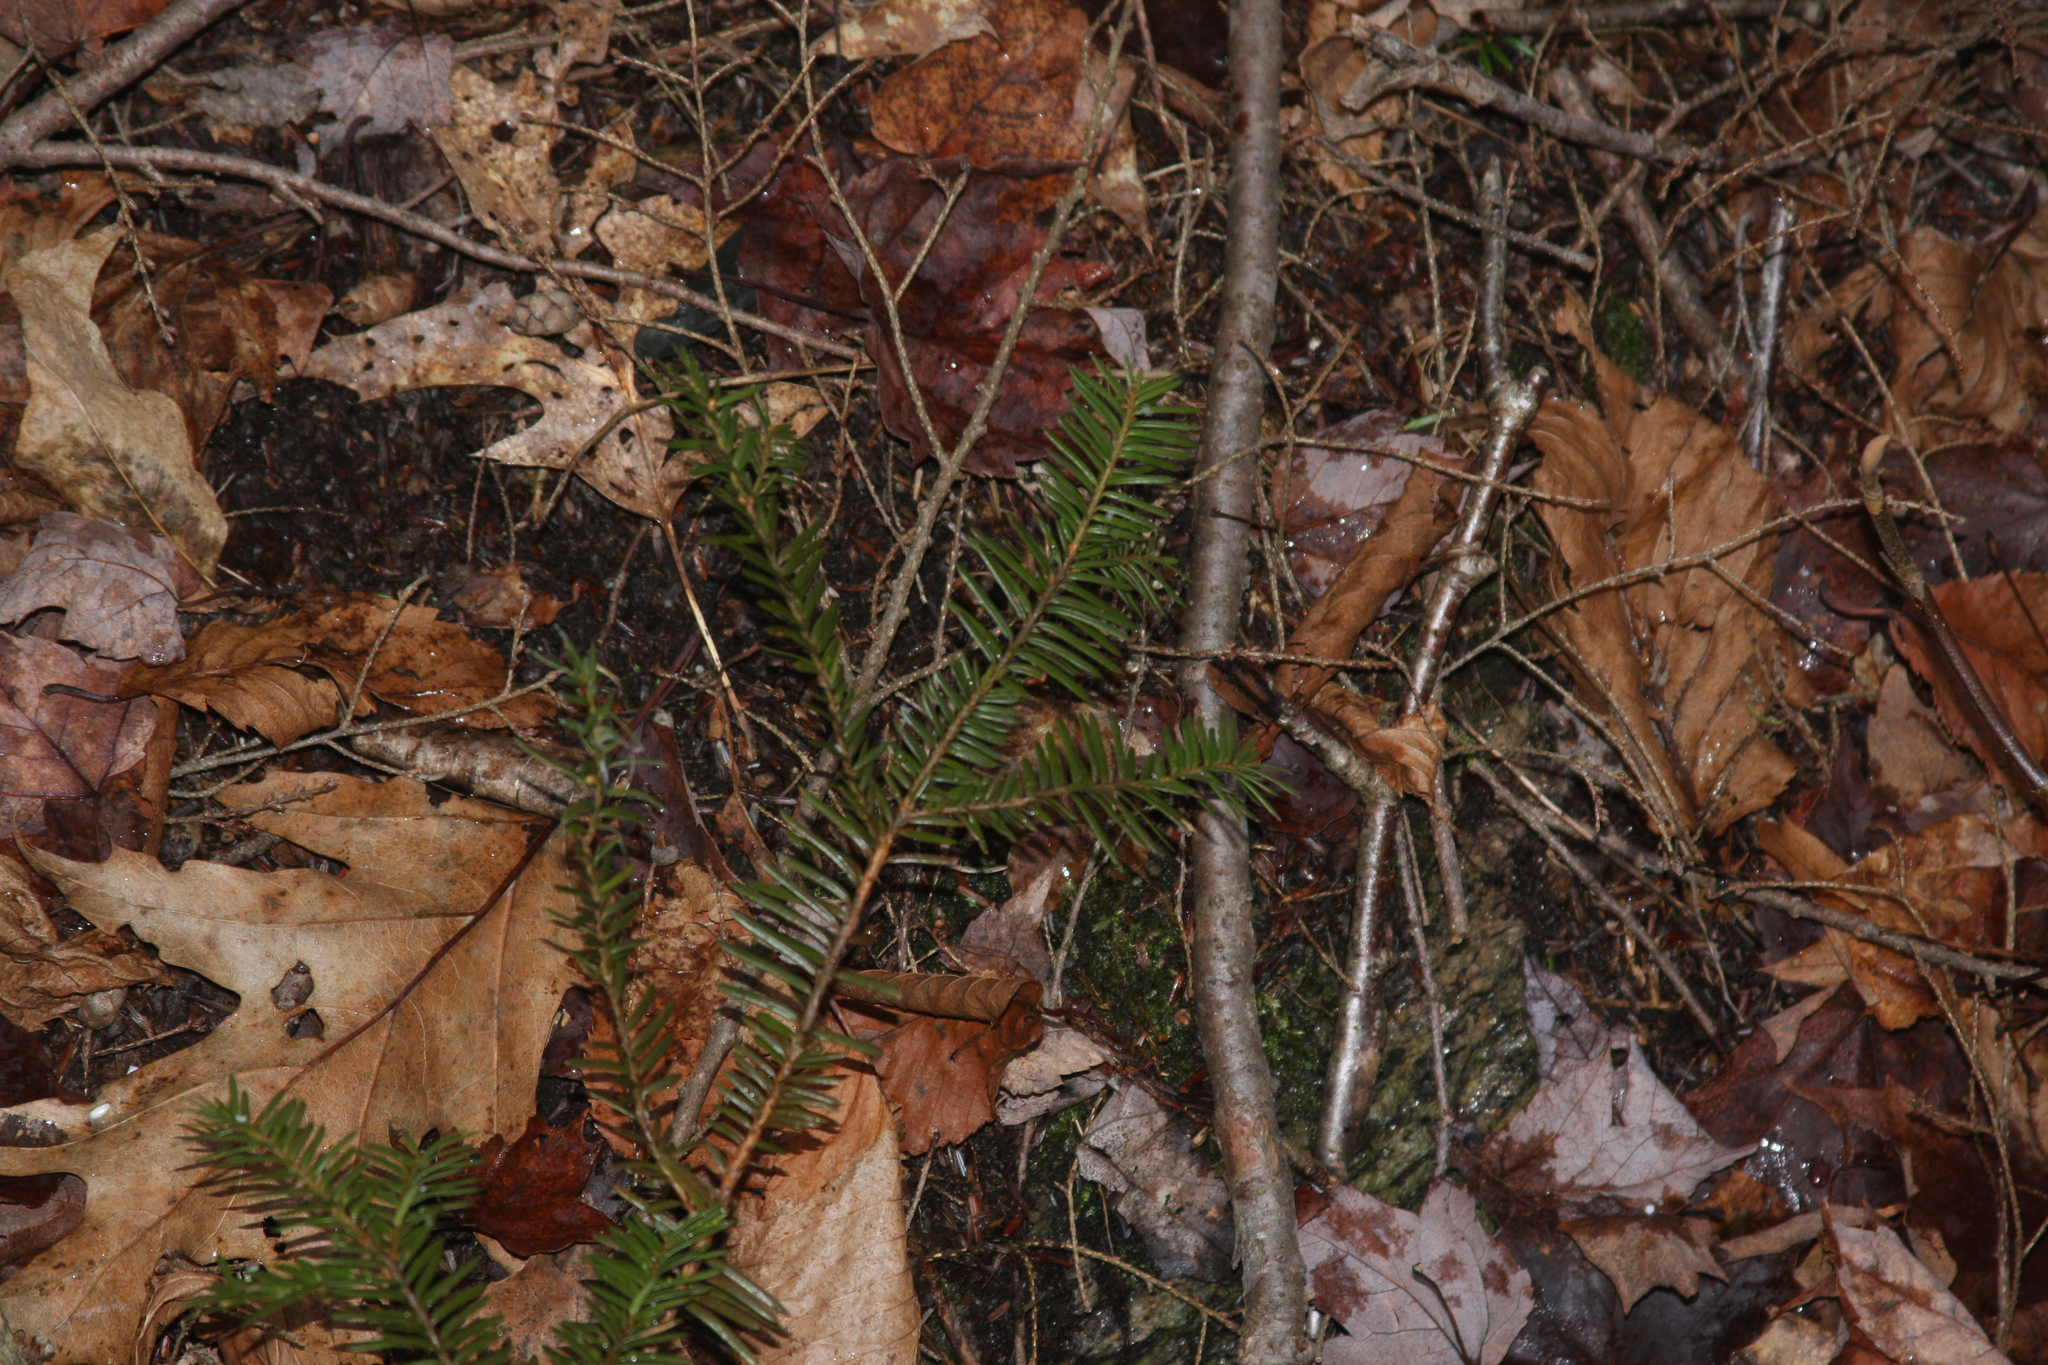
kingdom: Plantae
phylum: Tracheophyta
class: Pinopsida
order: Pinales
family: Taxaceae
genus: Taxus
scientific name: Taxus canadensis
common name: American yew
